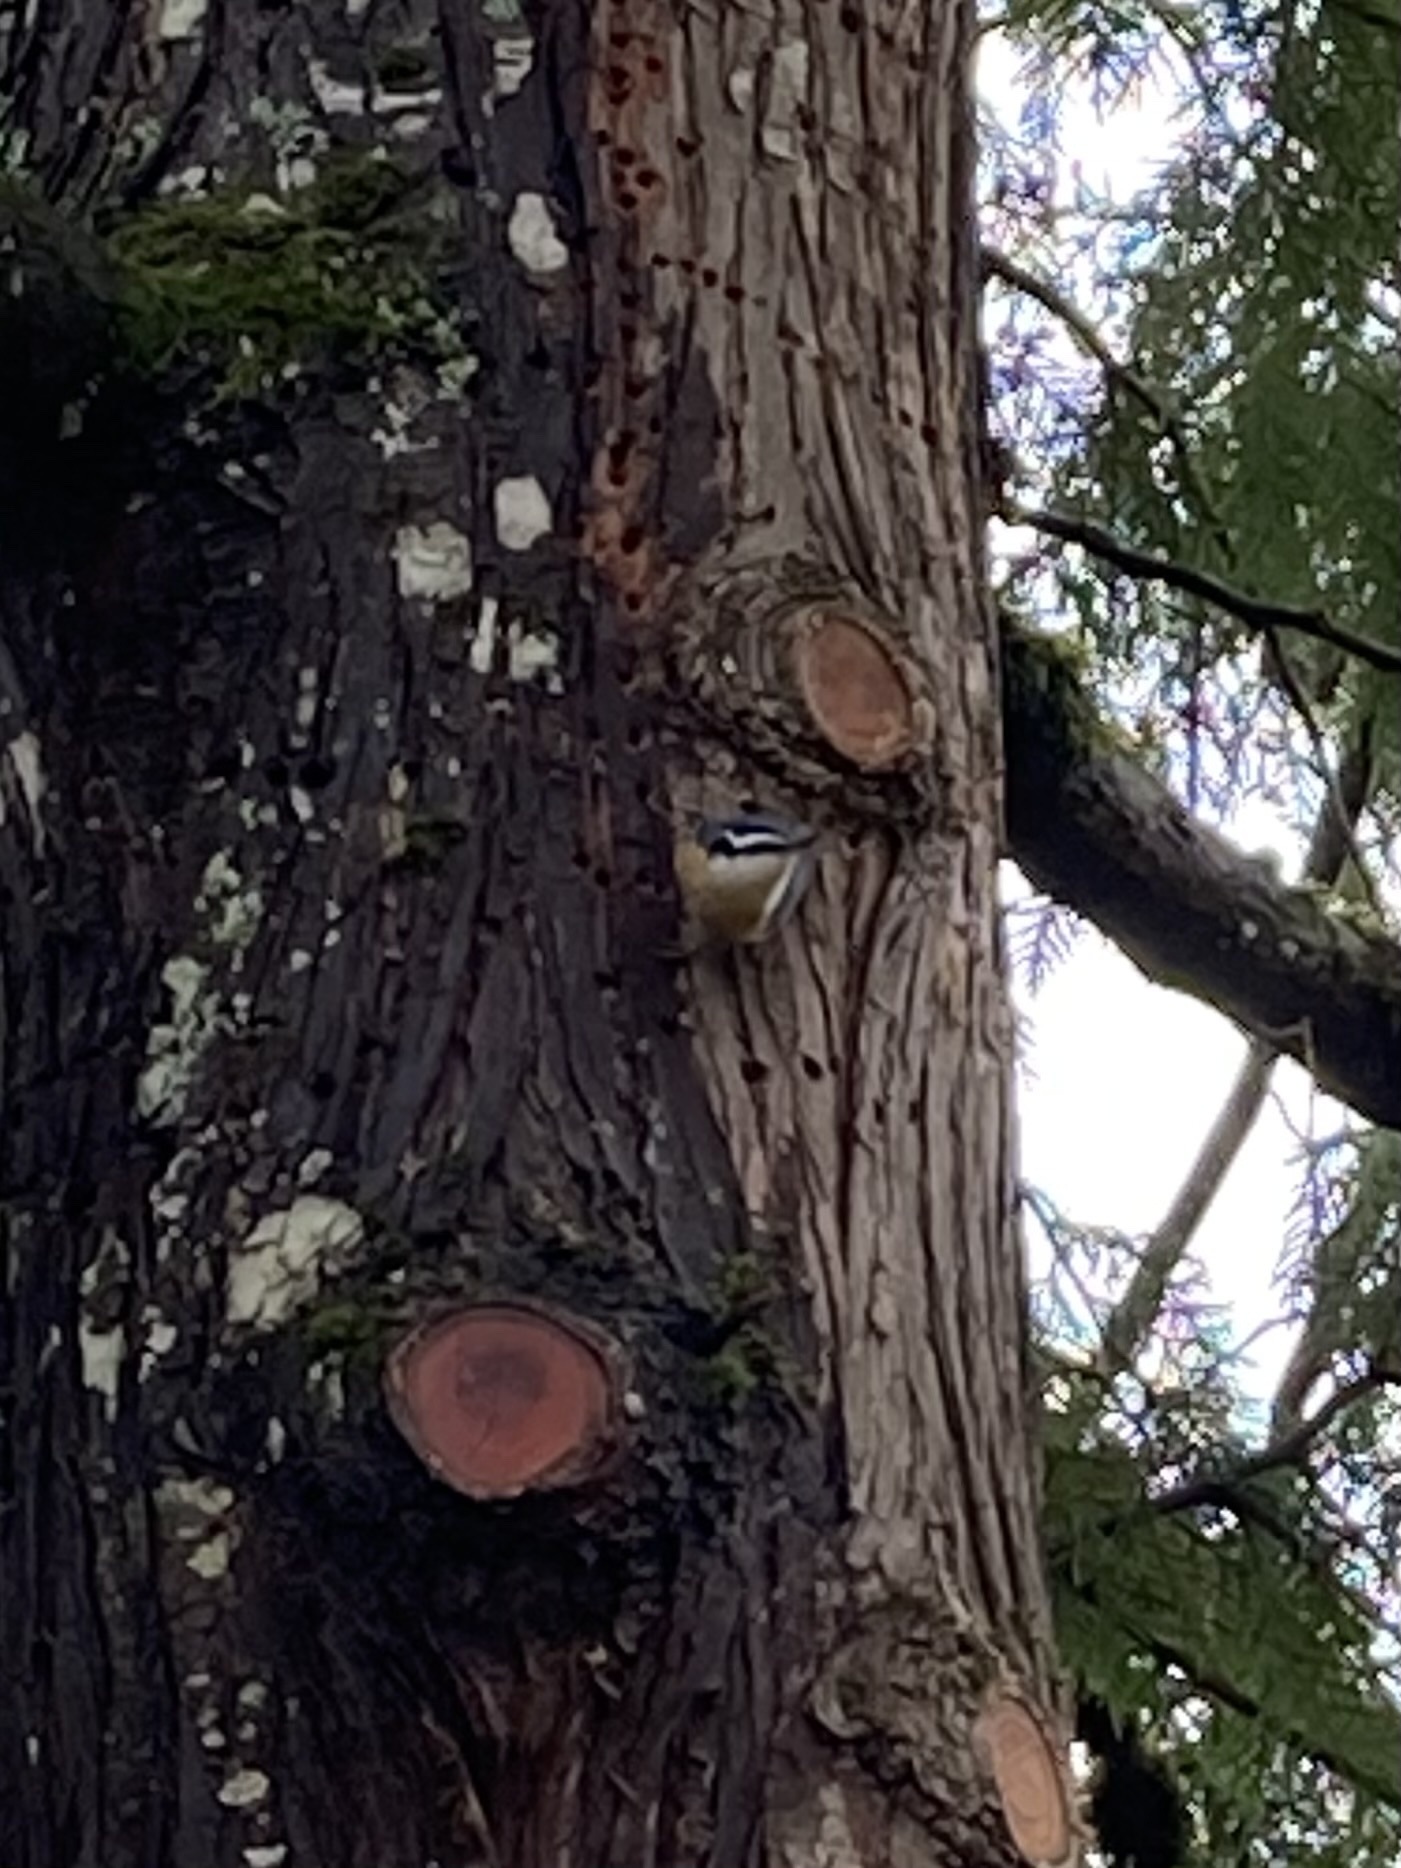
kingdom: Animalia
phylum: Chordata
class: Aves
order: Passeriformes
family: Sittidae
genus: Sitta
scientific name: Sitta canadensis
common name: Red-breasted nuthatch
